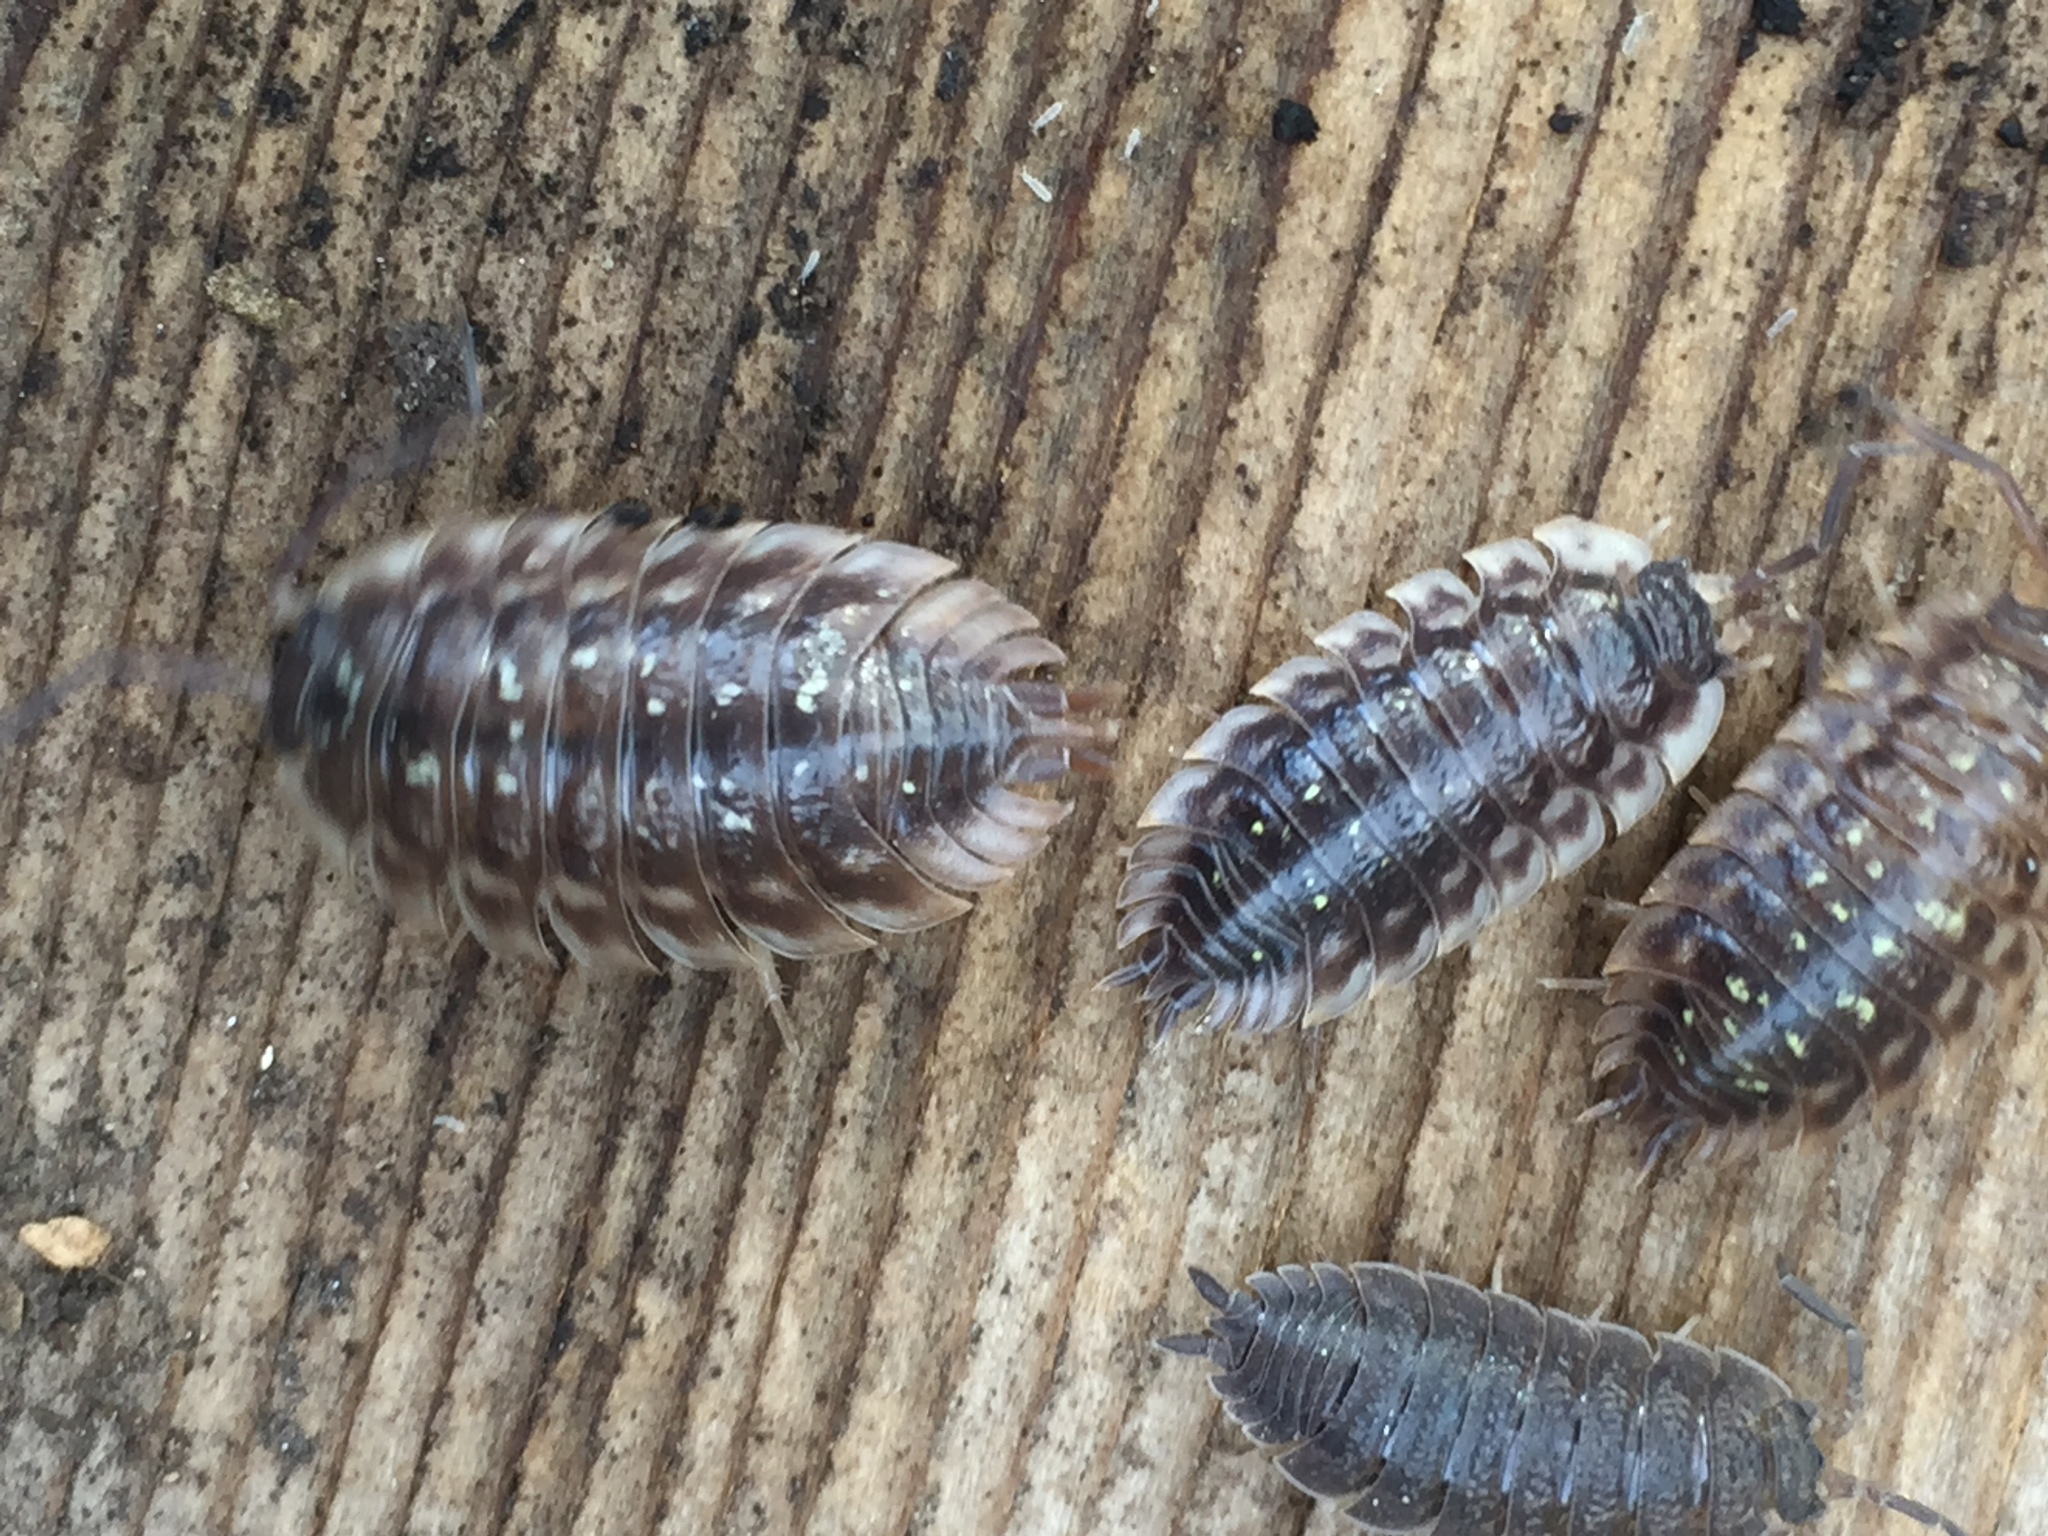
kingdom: Animalia
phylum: Arthropoda
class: Malacostraca
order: Isopoda
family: Oniscidae
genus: Oniscus
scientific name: Oniscus asellus
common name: Common shiny woodlouse
